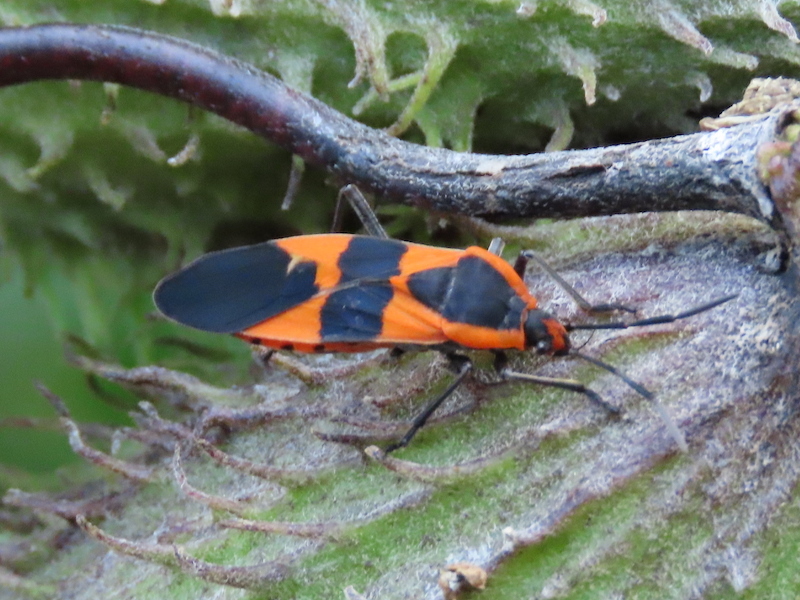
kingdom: Animalia
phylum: Arthropoda
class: Insecta
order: Hemiptera
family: Lygaeidae
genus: Oncopeltus
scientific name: Oncopeltus fasciatus
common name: Large milkweed bug
